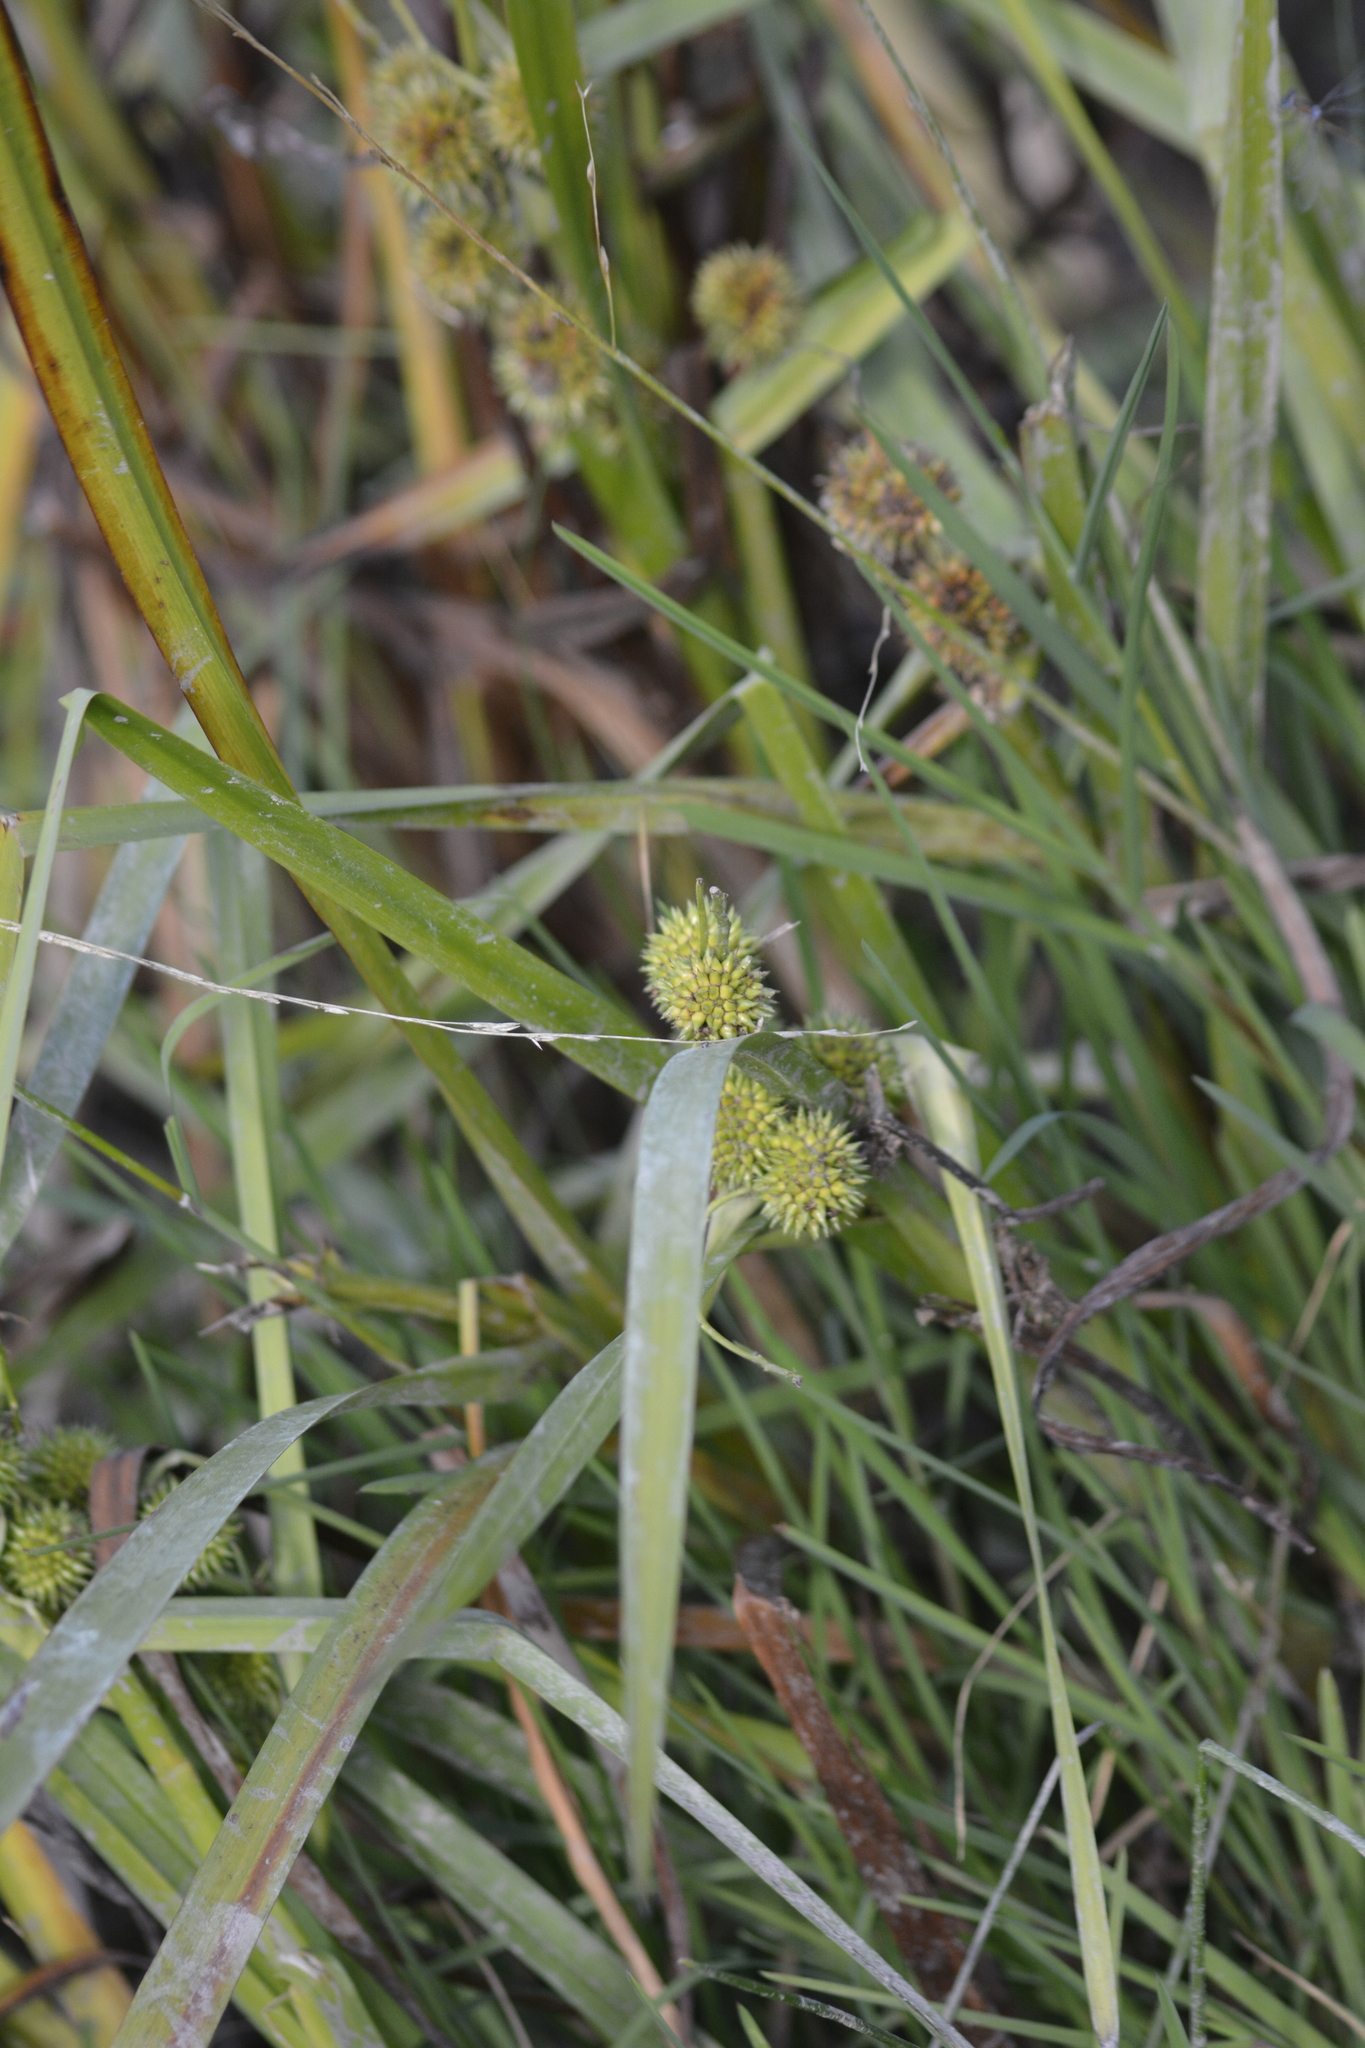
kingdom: Plantae
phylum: Tracheophyta
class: Liliopsida
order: Poales
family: Typhaceae
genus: Sparganium
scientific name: Sparganium erectum
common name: Branched bur-reed
